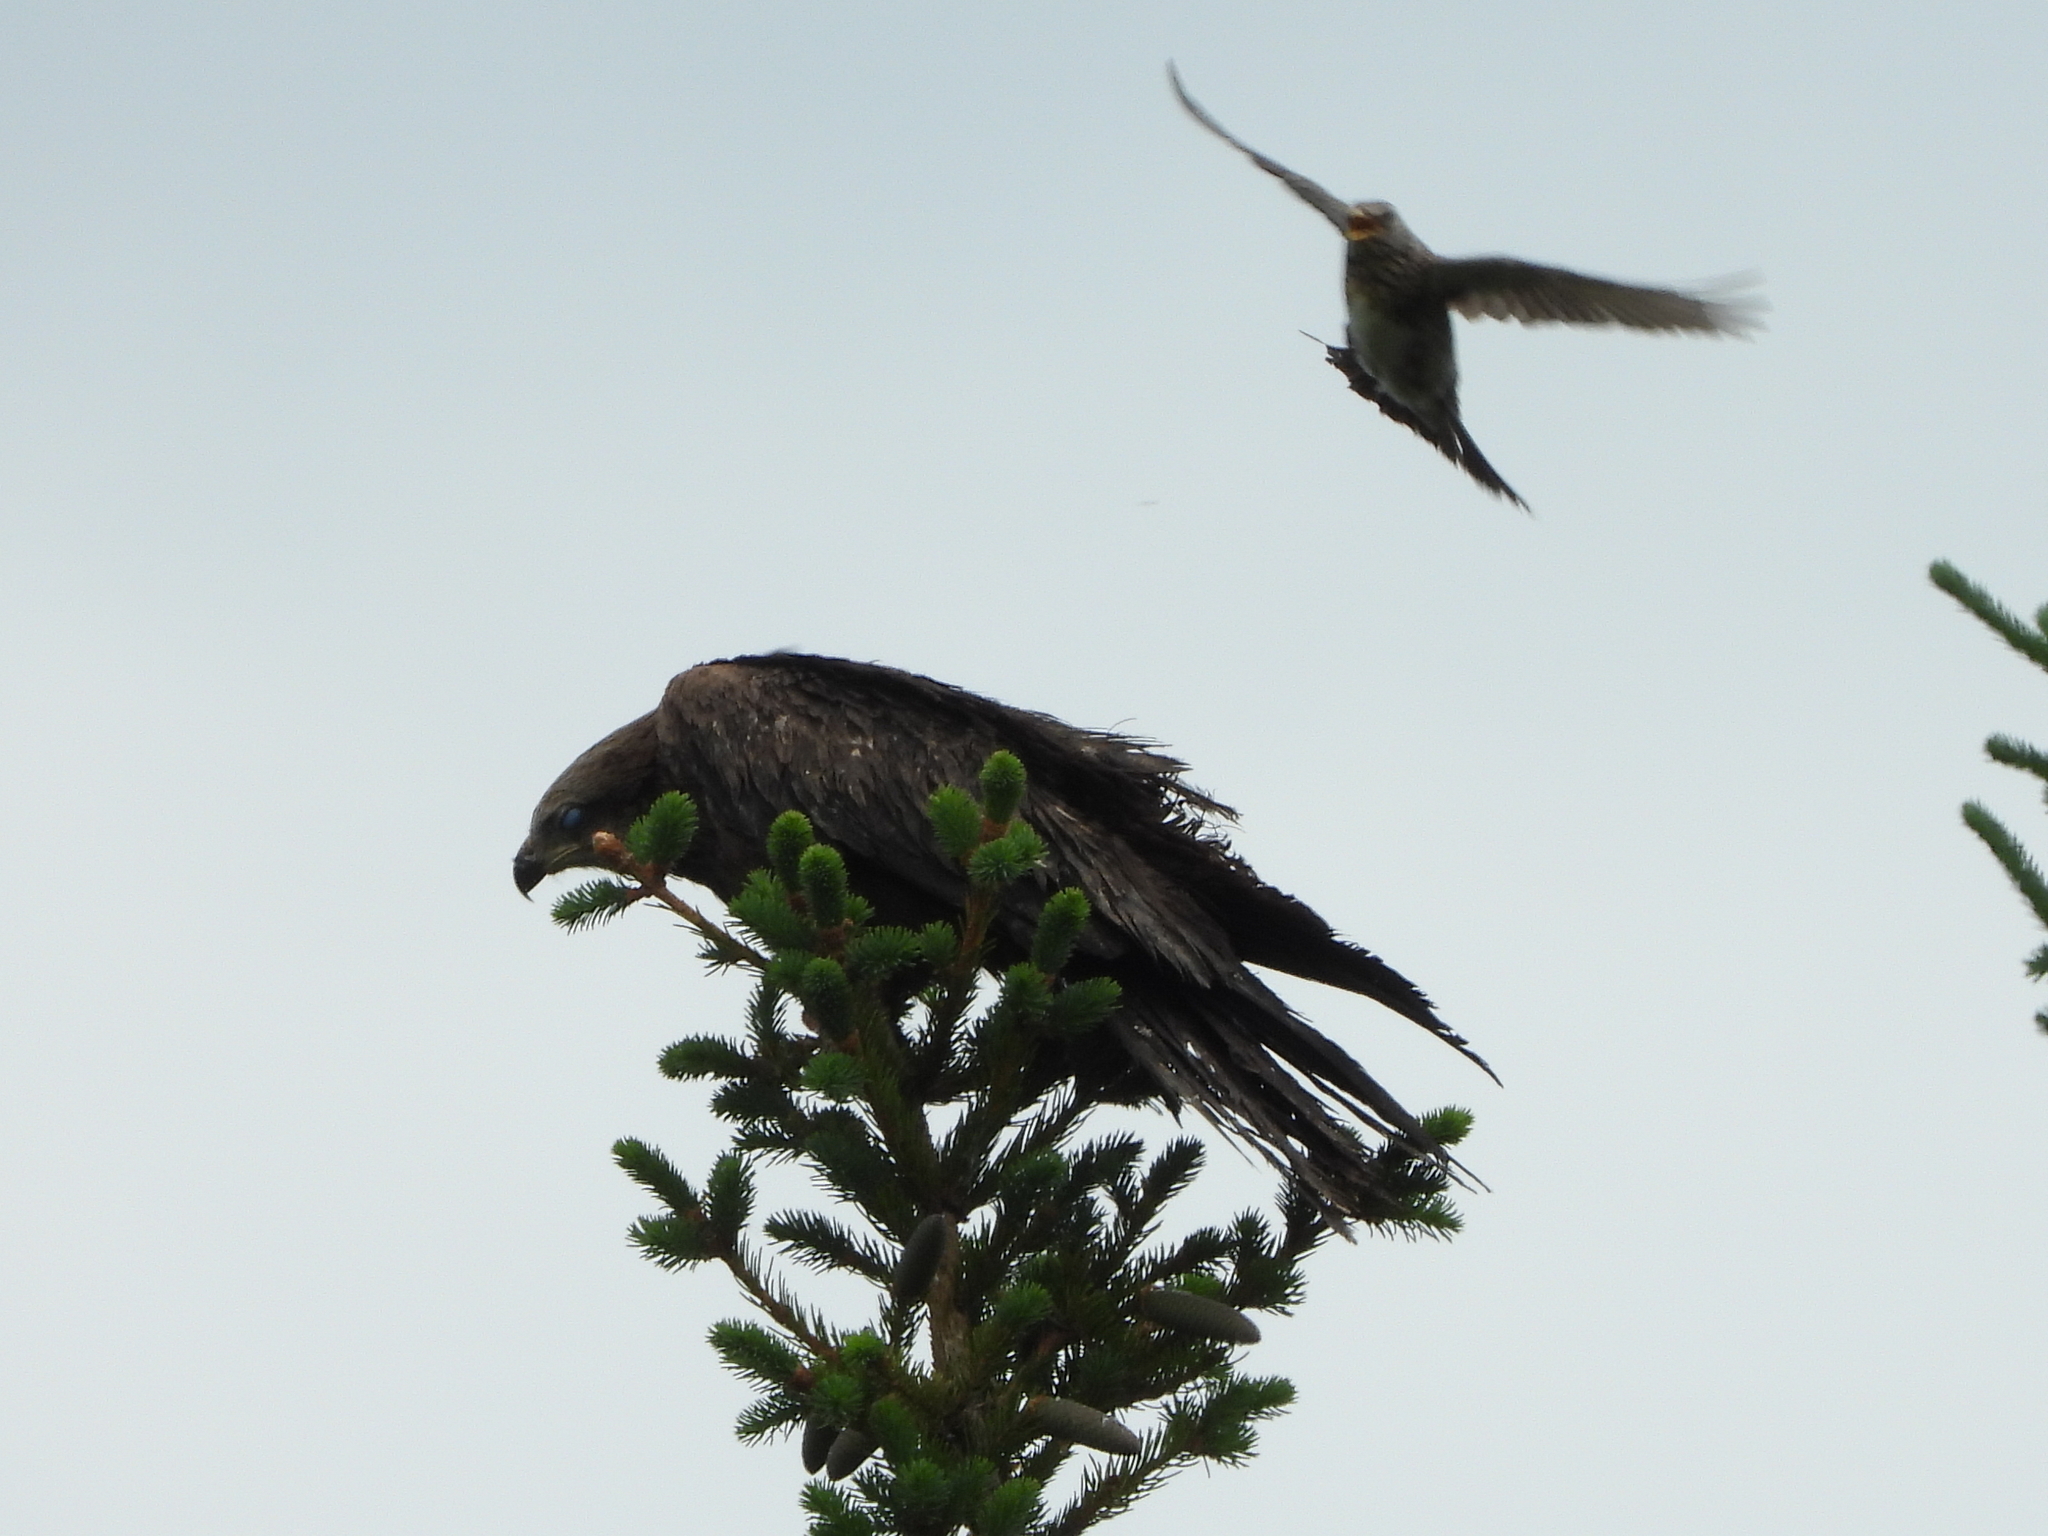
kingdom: Animalia
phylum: Chordata
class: Aves
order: Accipitriformes
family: Accipitridae
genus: Milvus
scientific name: Milvus migrans
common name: Black kite
